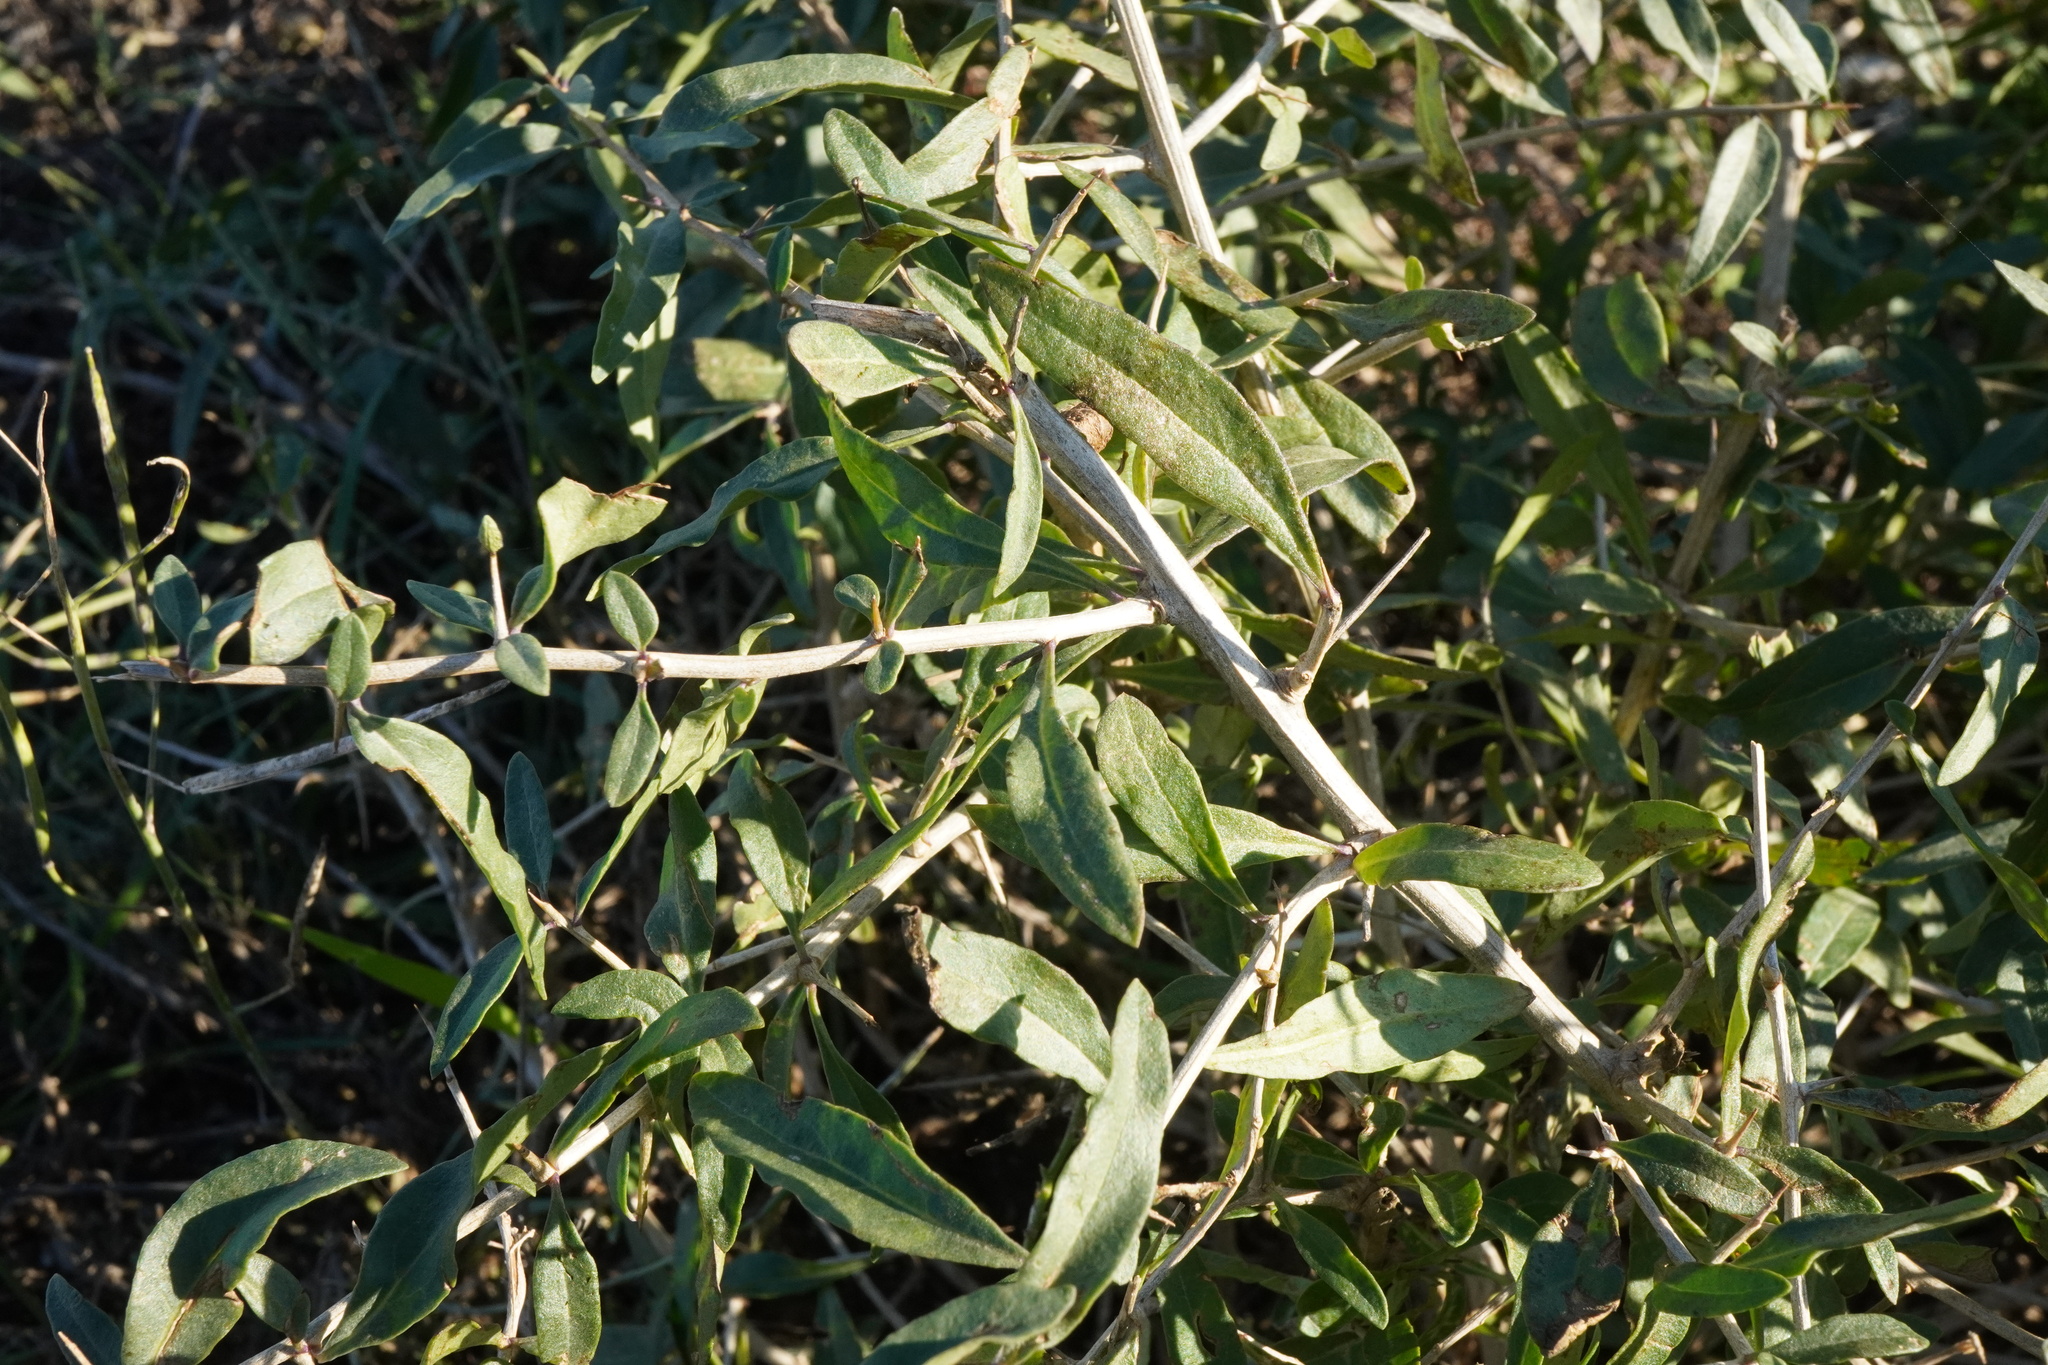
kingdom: Plantae
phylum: Tracheophyta
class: Magnoliopsida
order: Solanales
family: Solanaceae
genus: Lycium
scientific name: Lycium barbarum
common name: Duke of argyll's teaplant
